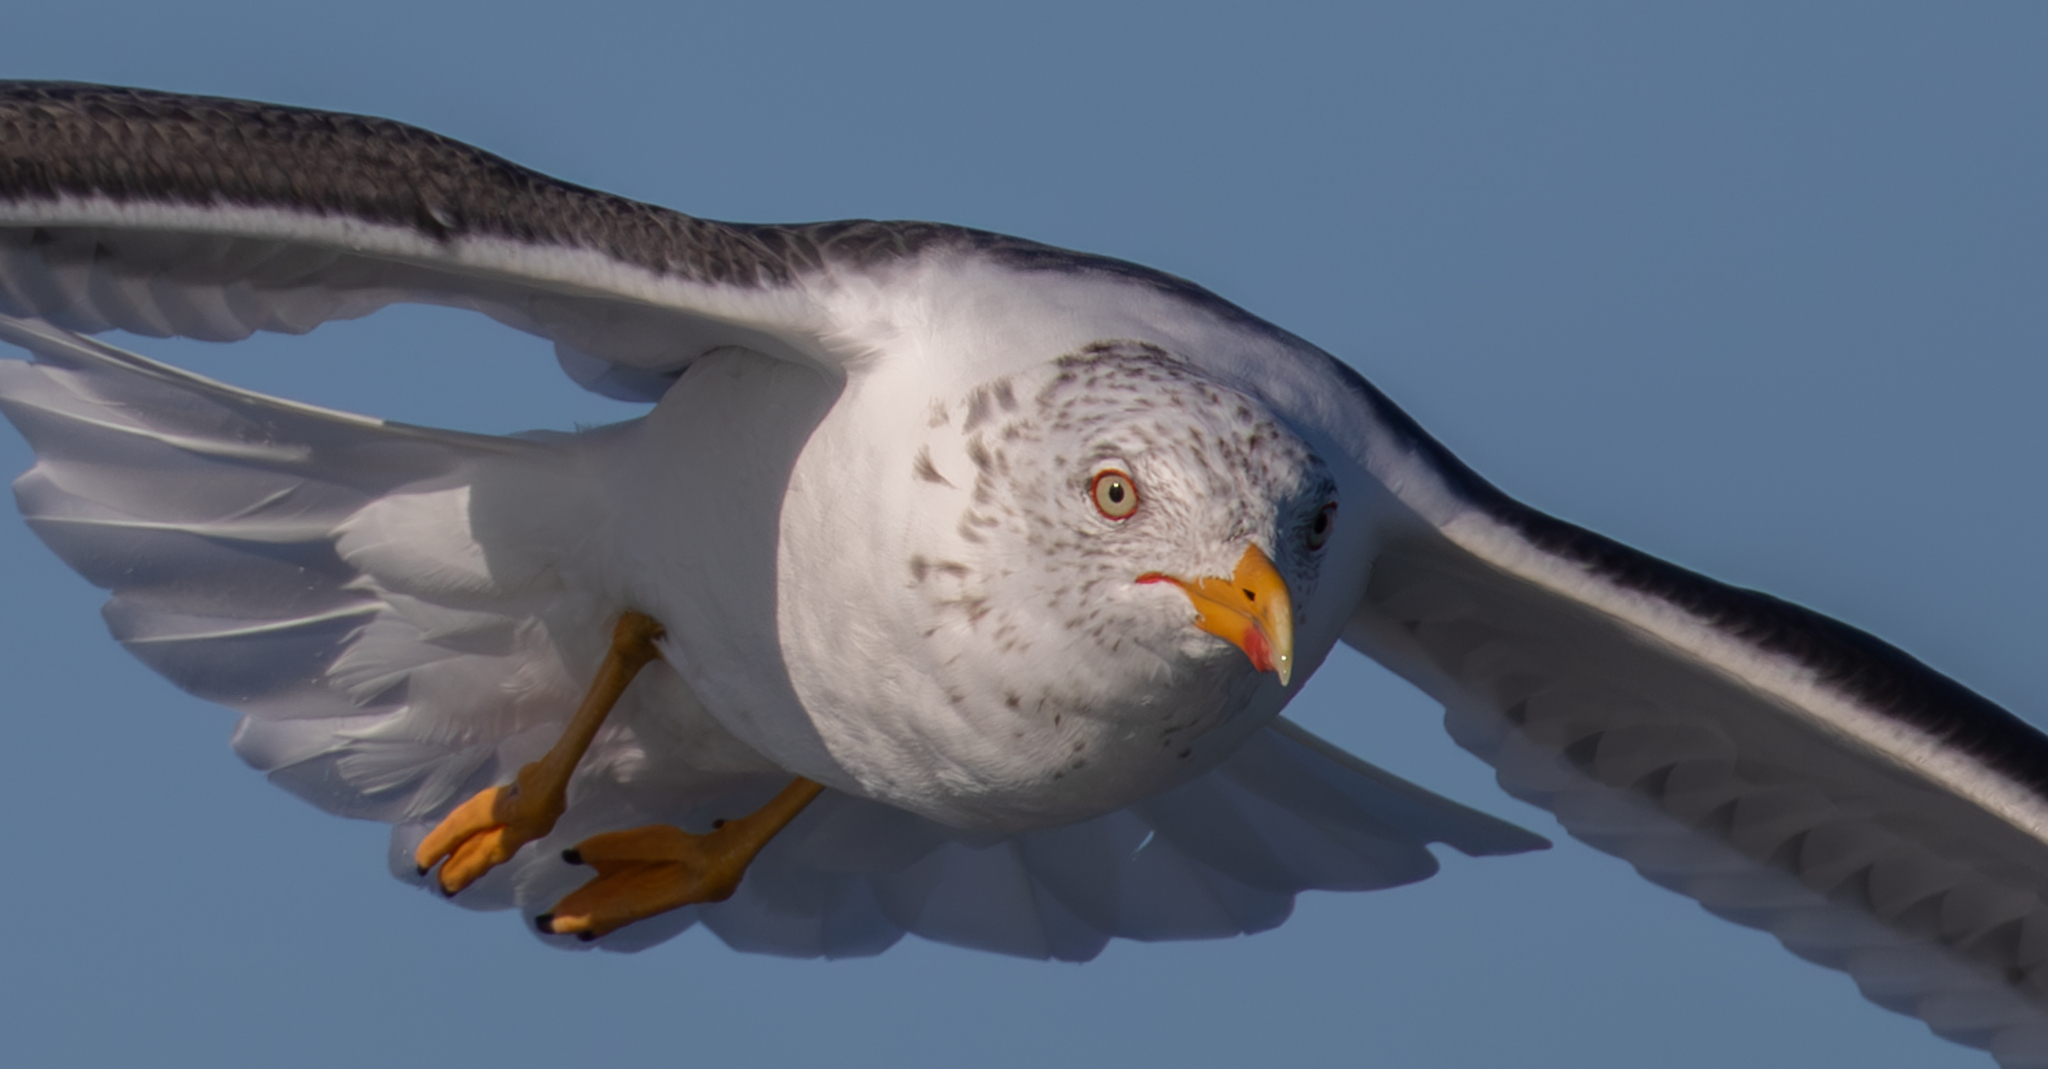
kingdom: Animalia
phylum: Chordata
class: Aves
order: Charadriiformes
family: Laridae
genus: Larus
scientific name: Larus fuscus
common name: Lesser black-backed gull
